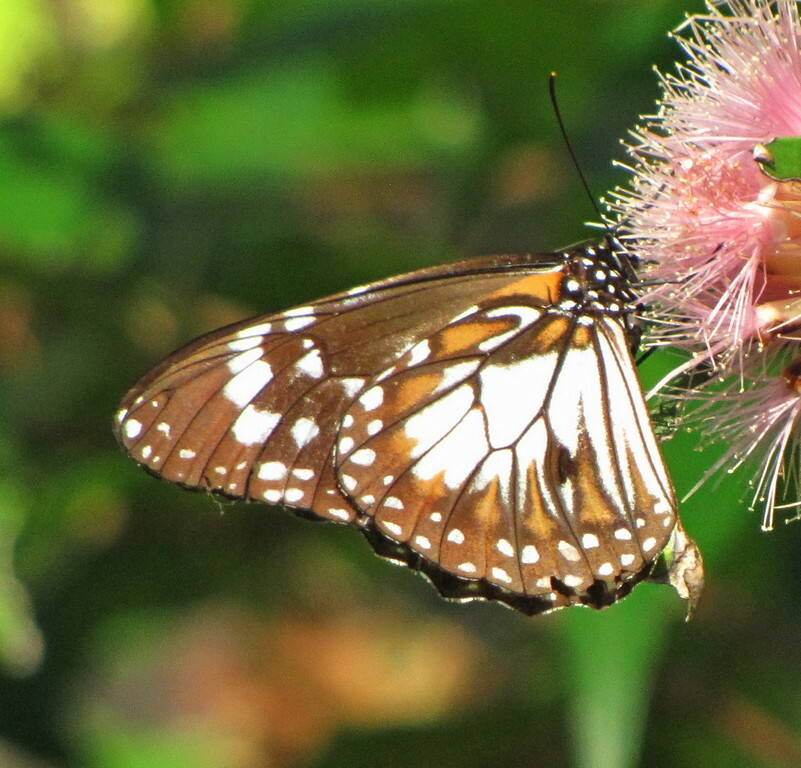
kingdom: Animalia
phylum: Arthropoda
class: Insecta
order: Lepidoptera
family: Nymphalidae
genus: Danaus
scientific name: Danaus affinis
